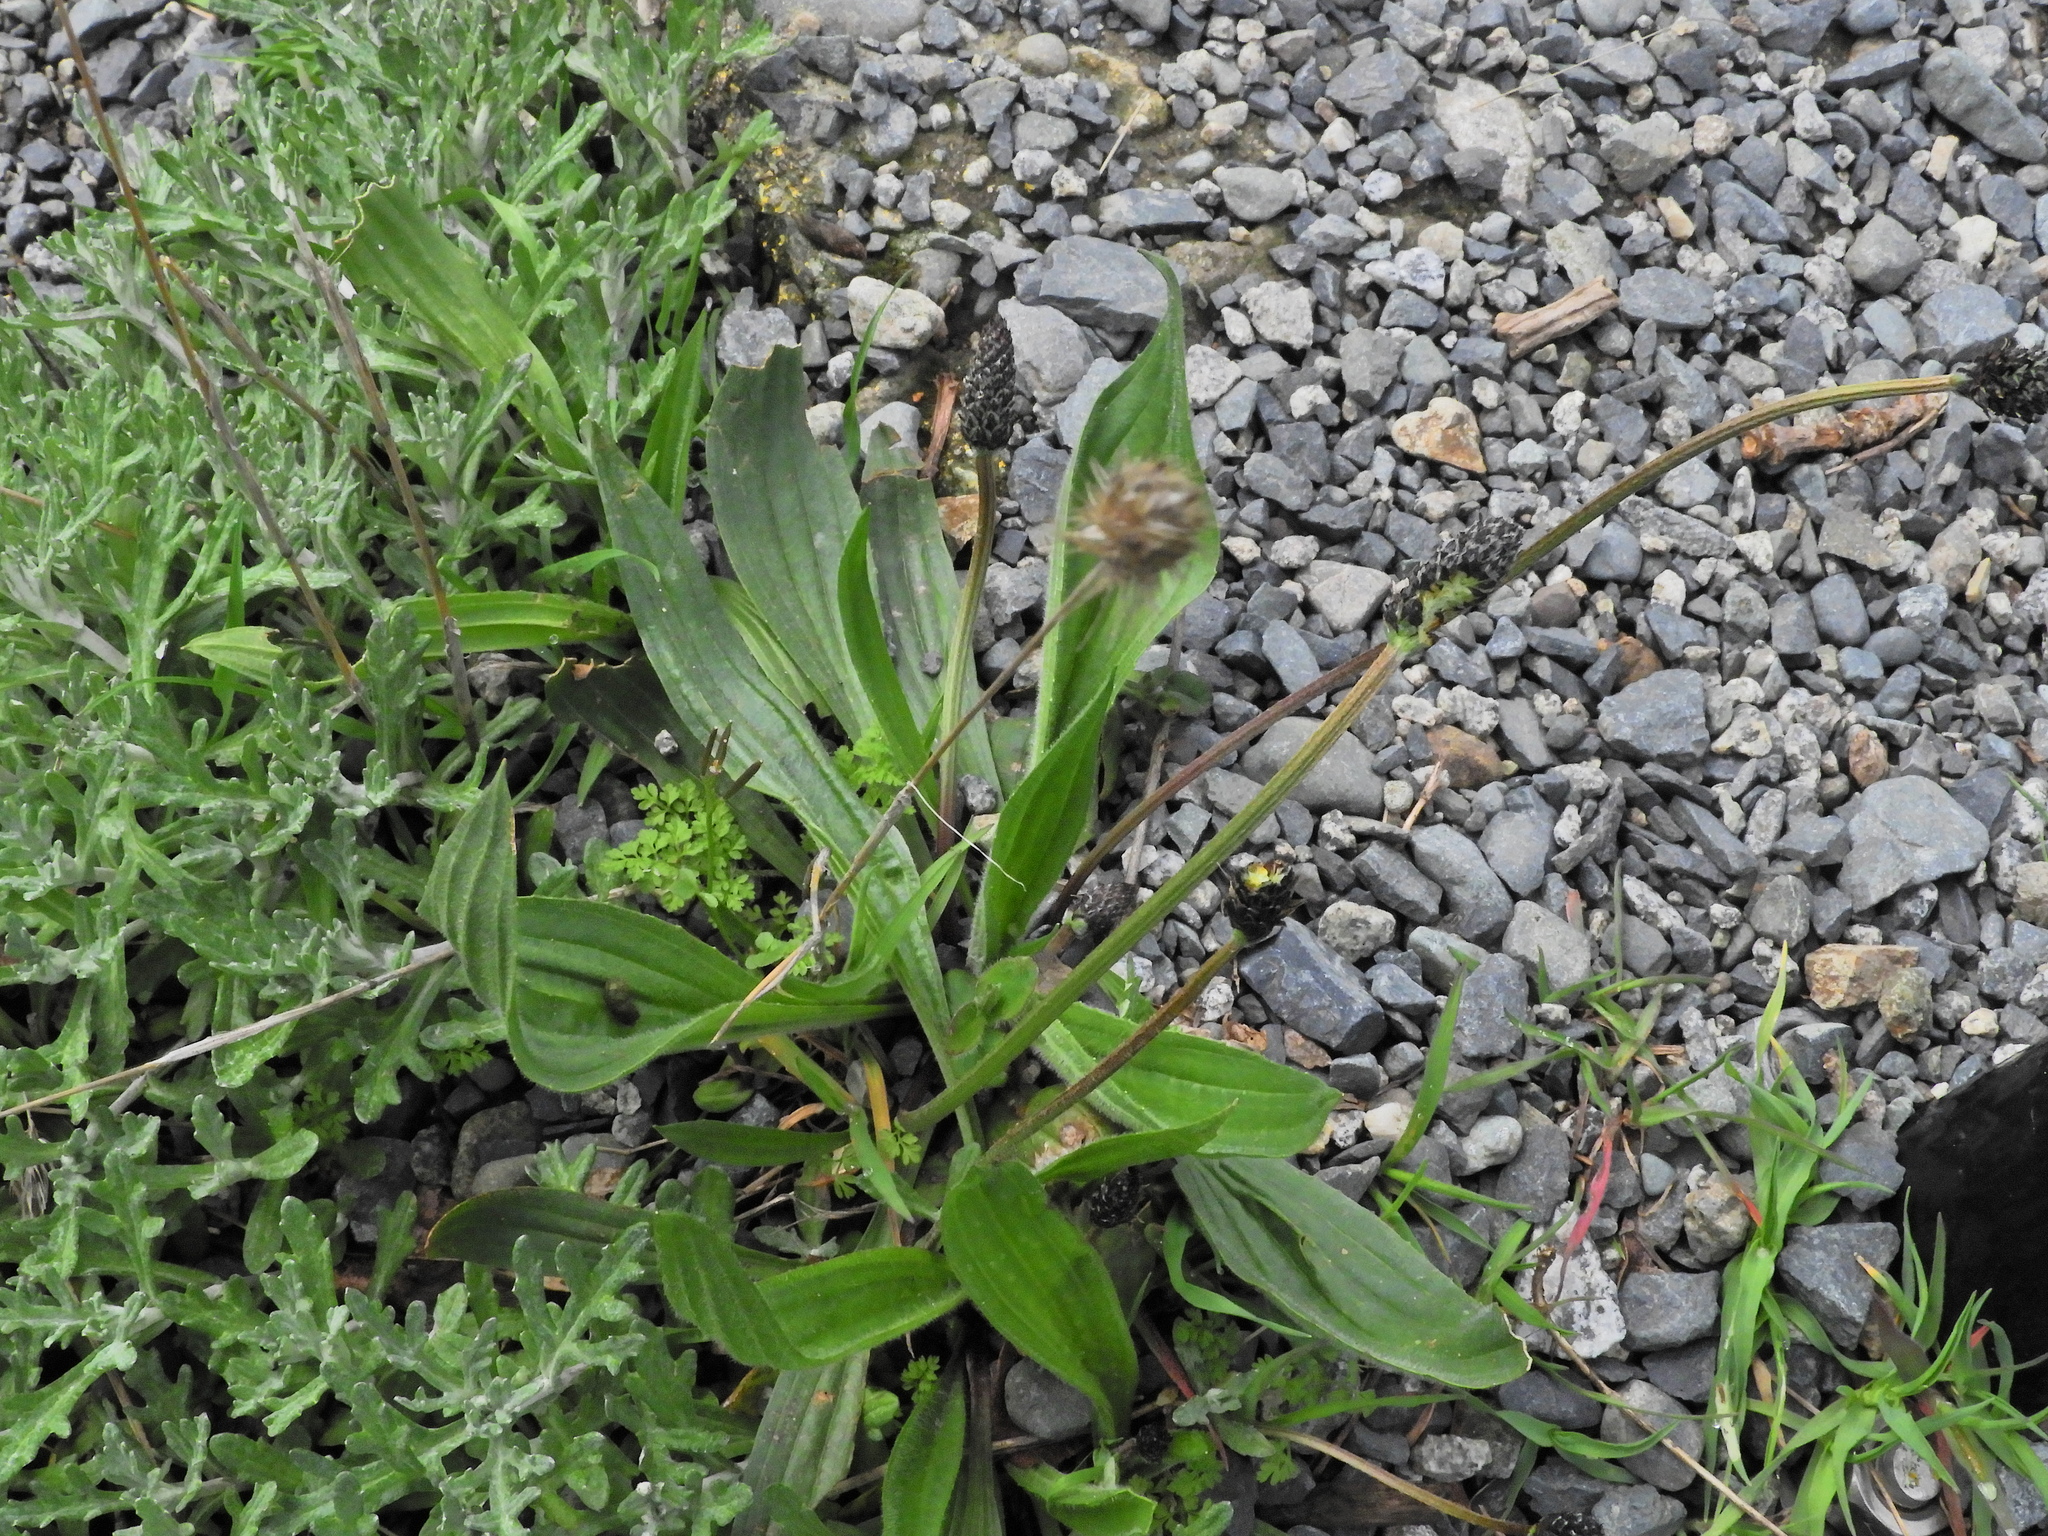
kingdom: Plantae
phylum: Tracheophyta
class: Magnoliopsida
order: Lamiales
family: Plantaginaceae
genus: Plantago
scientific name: Plantago lanceolata
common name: Ribwort plantain
